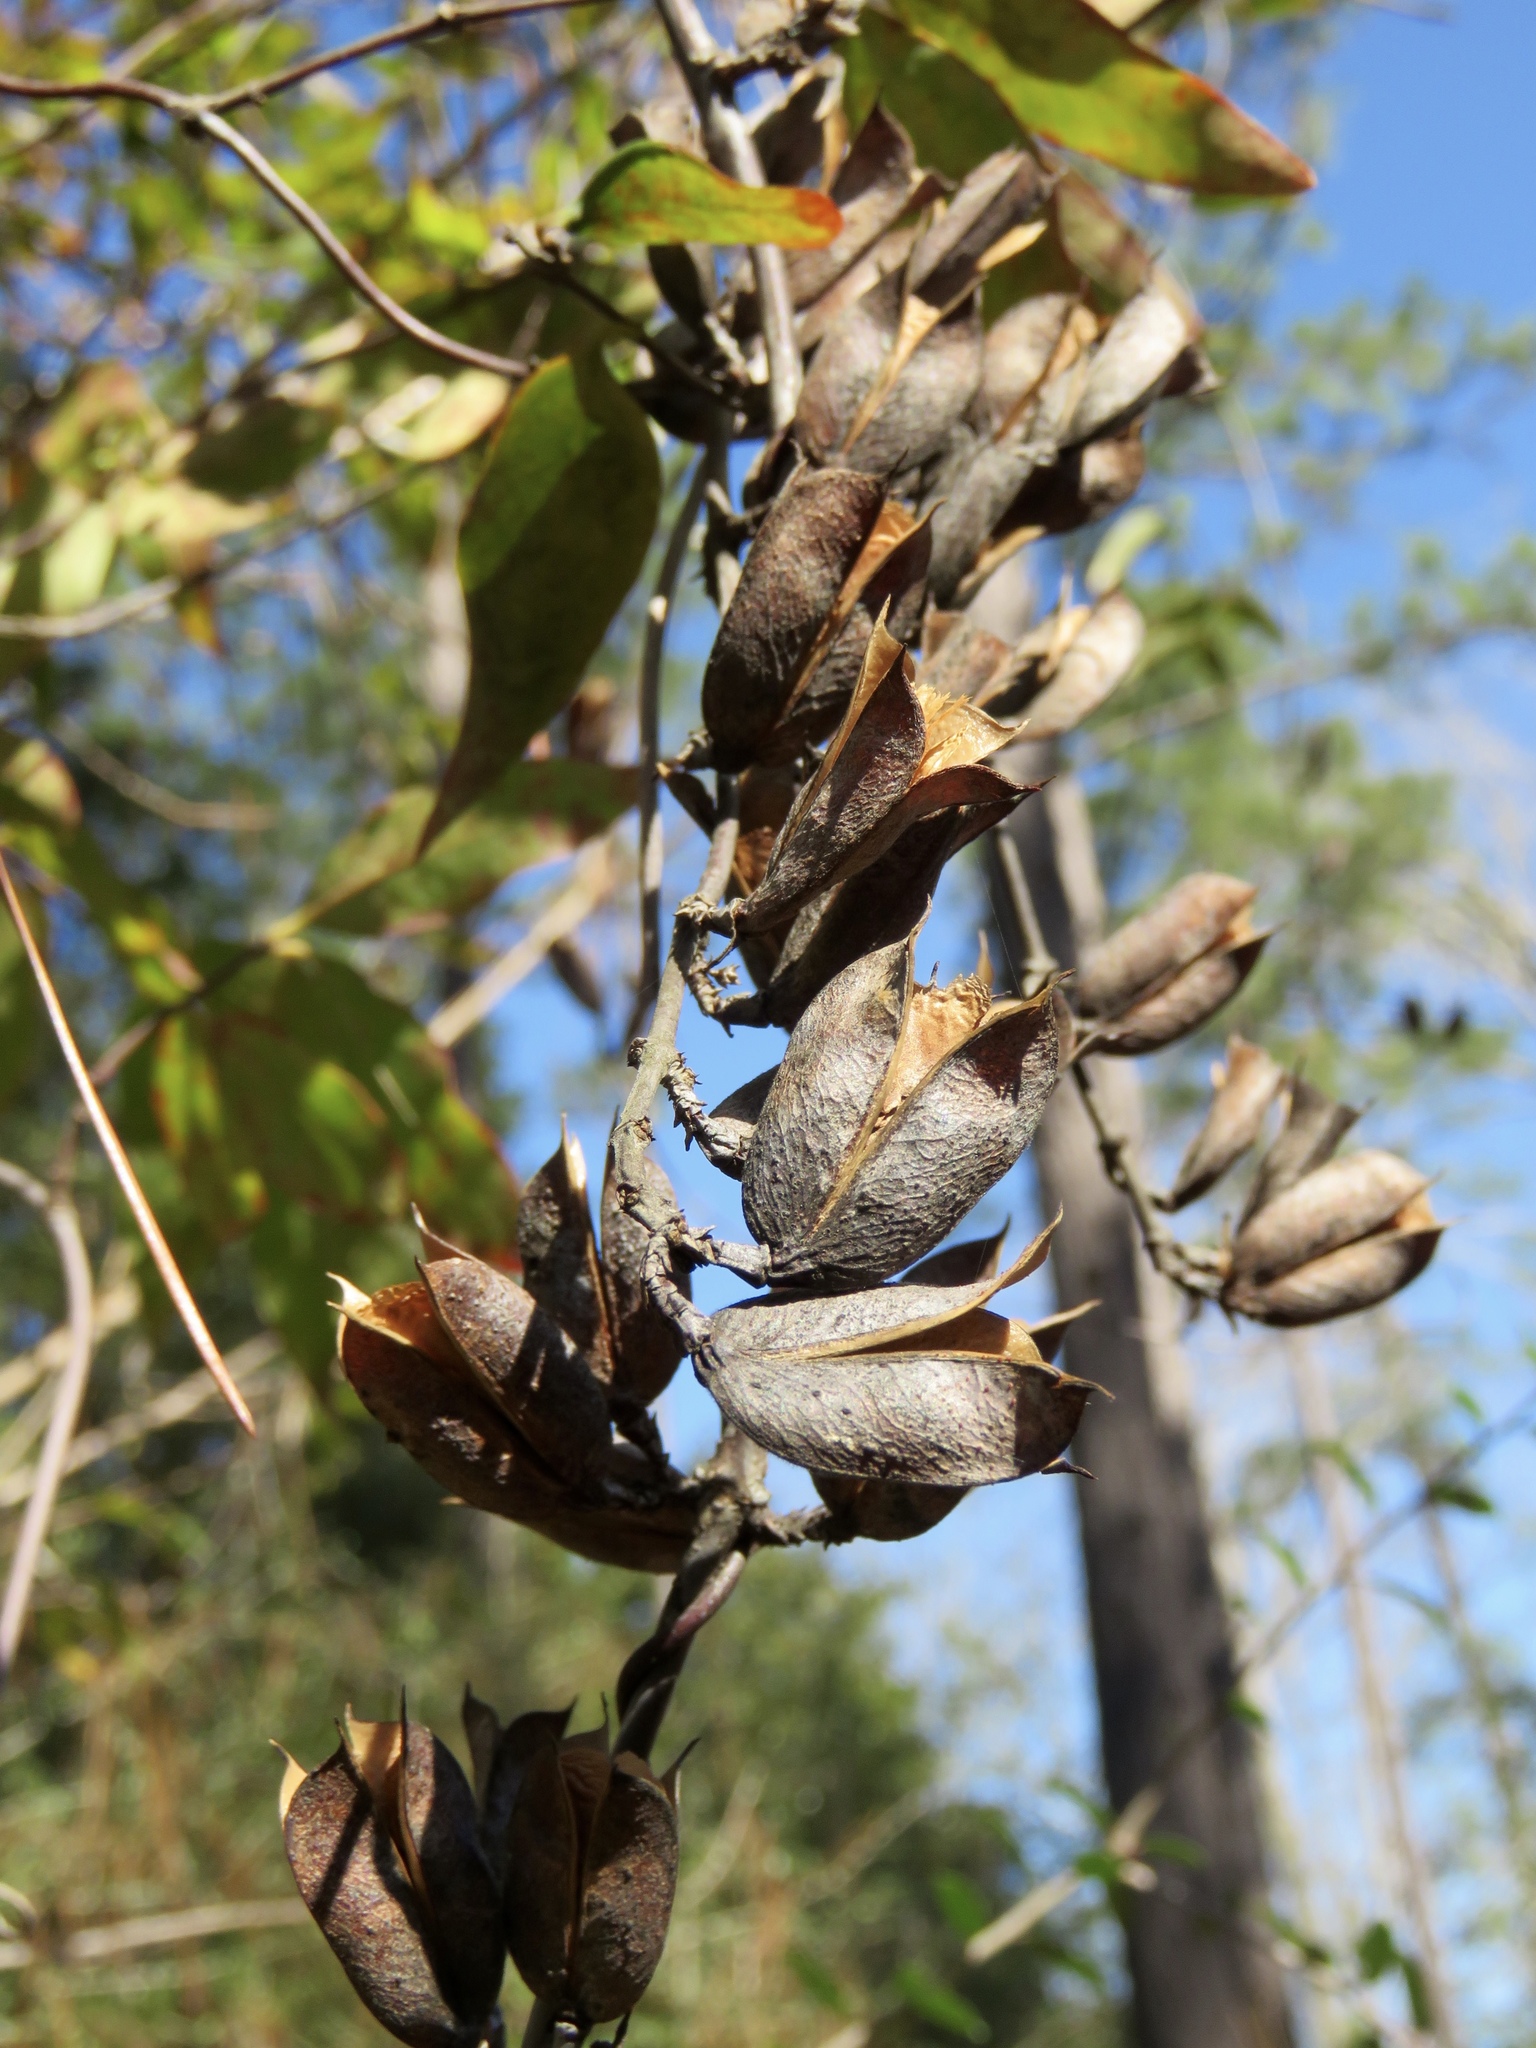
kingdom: Plantae
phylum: Tracheophyta
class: Magnoliopsida
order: Gentianales
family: Gelsemiaceae
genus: Gelsemium
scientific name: Gelsemium sempervirens
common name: Carolina-jasmine
